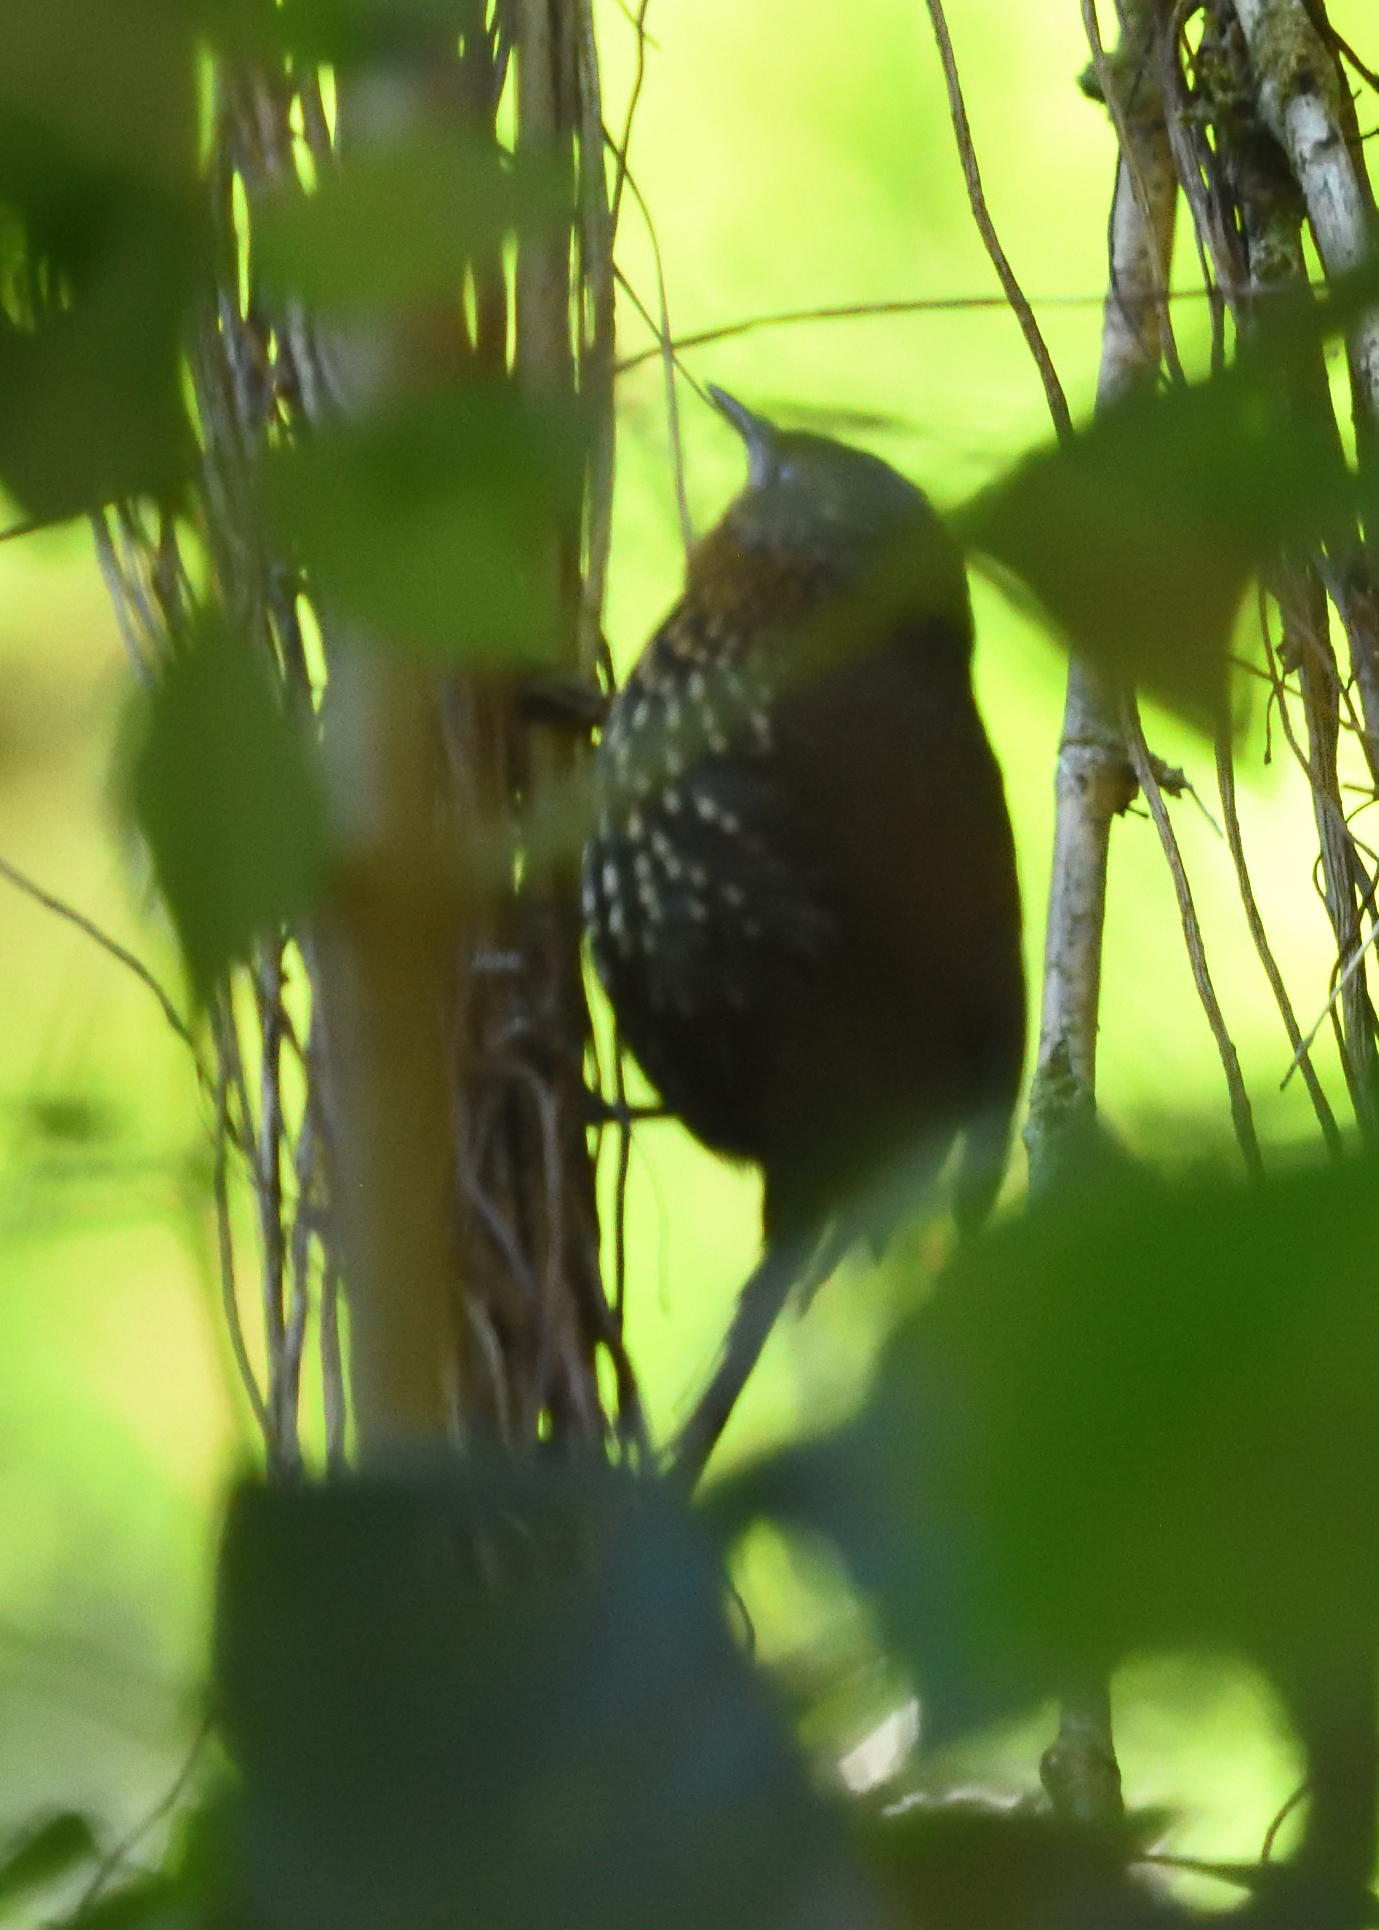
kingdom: Animalia
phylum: Chordata
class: Aves
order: Passeriformes
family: Furnariidae
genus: Premnoplex
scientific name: Premnoplex brunnescens
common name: Spotted barbtail
